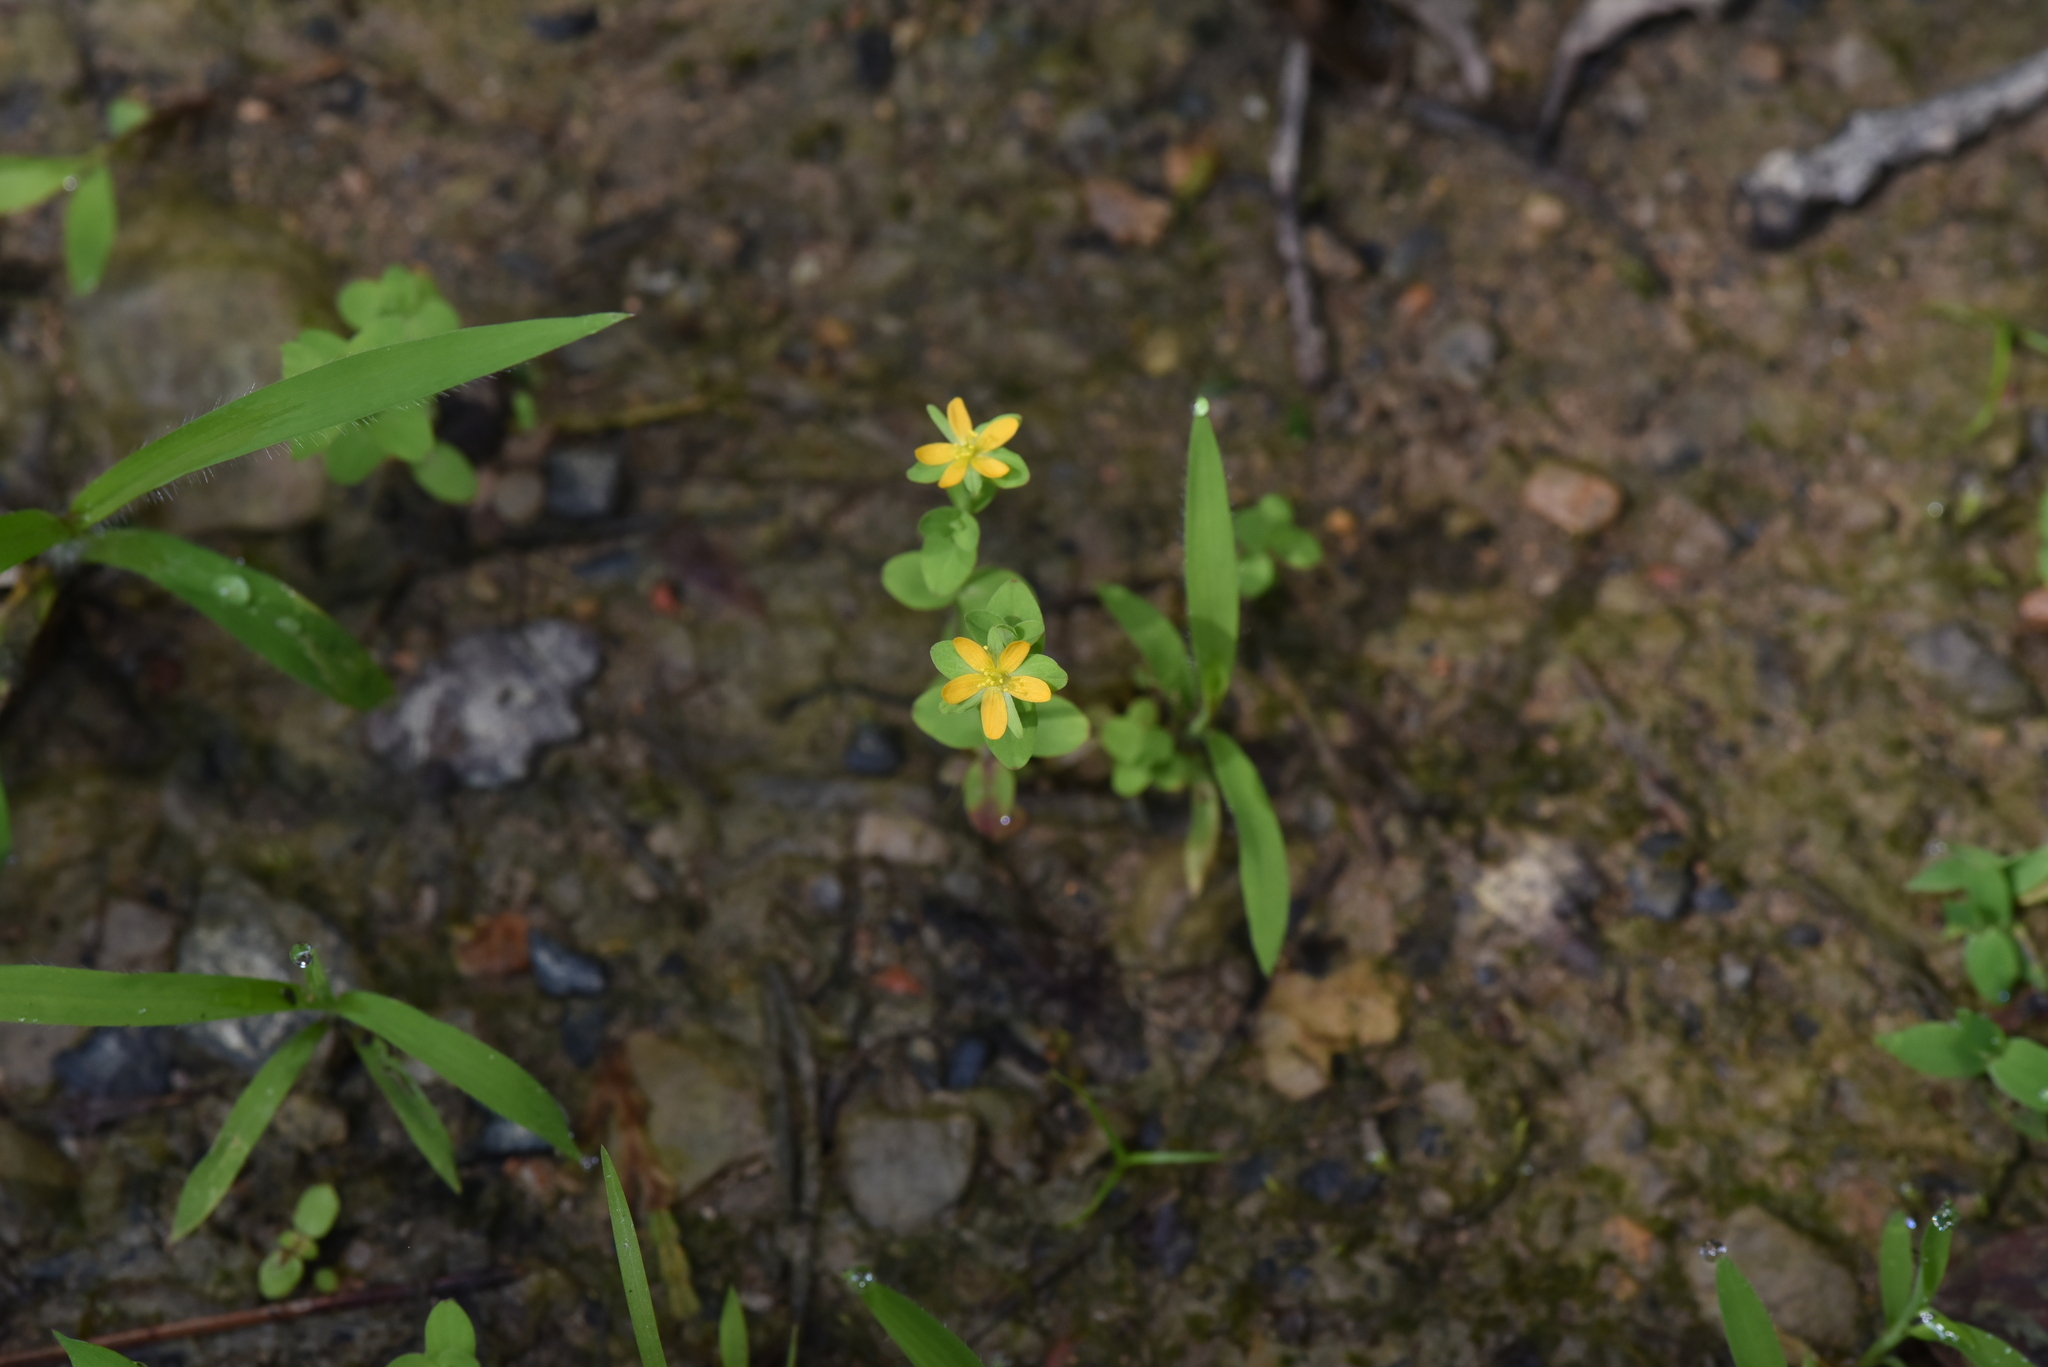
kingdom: Plantae
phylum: Tracheophyta
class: Magnoliopsida
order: Malpighiales
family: Hypericaceae
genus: Hypericum
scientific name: Hypericum japonicum
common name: Matted st. john's-wort
